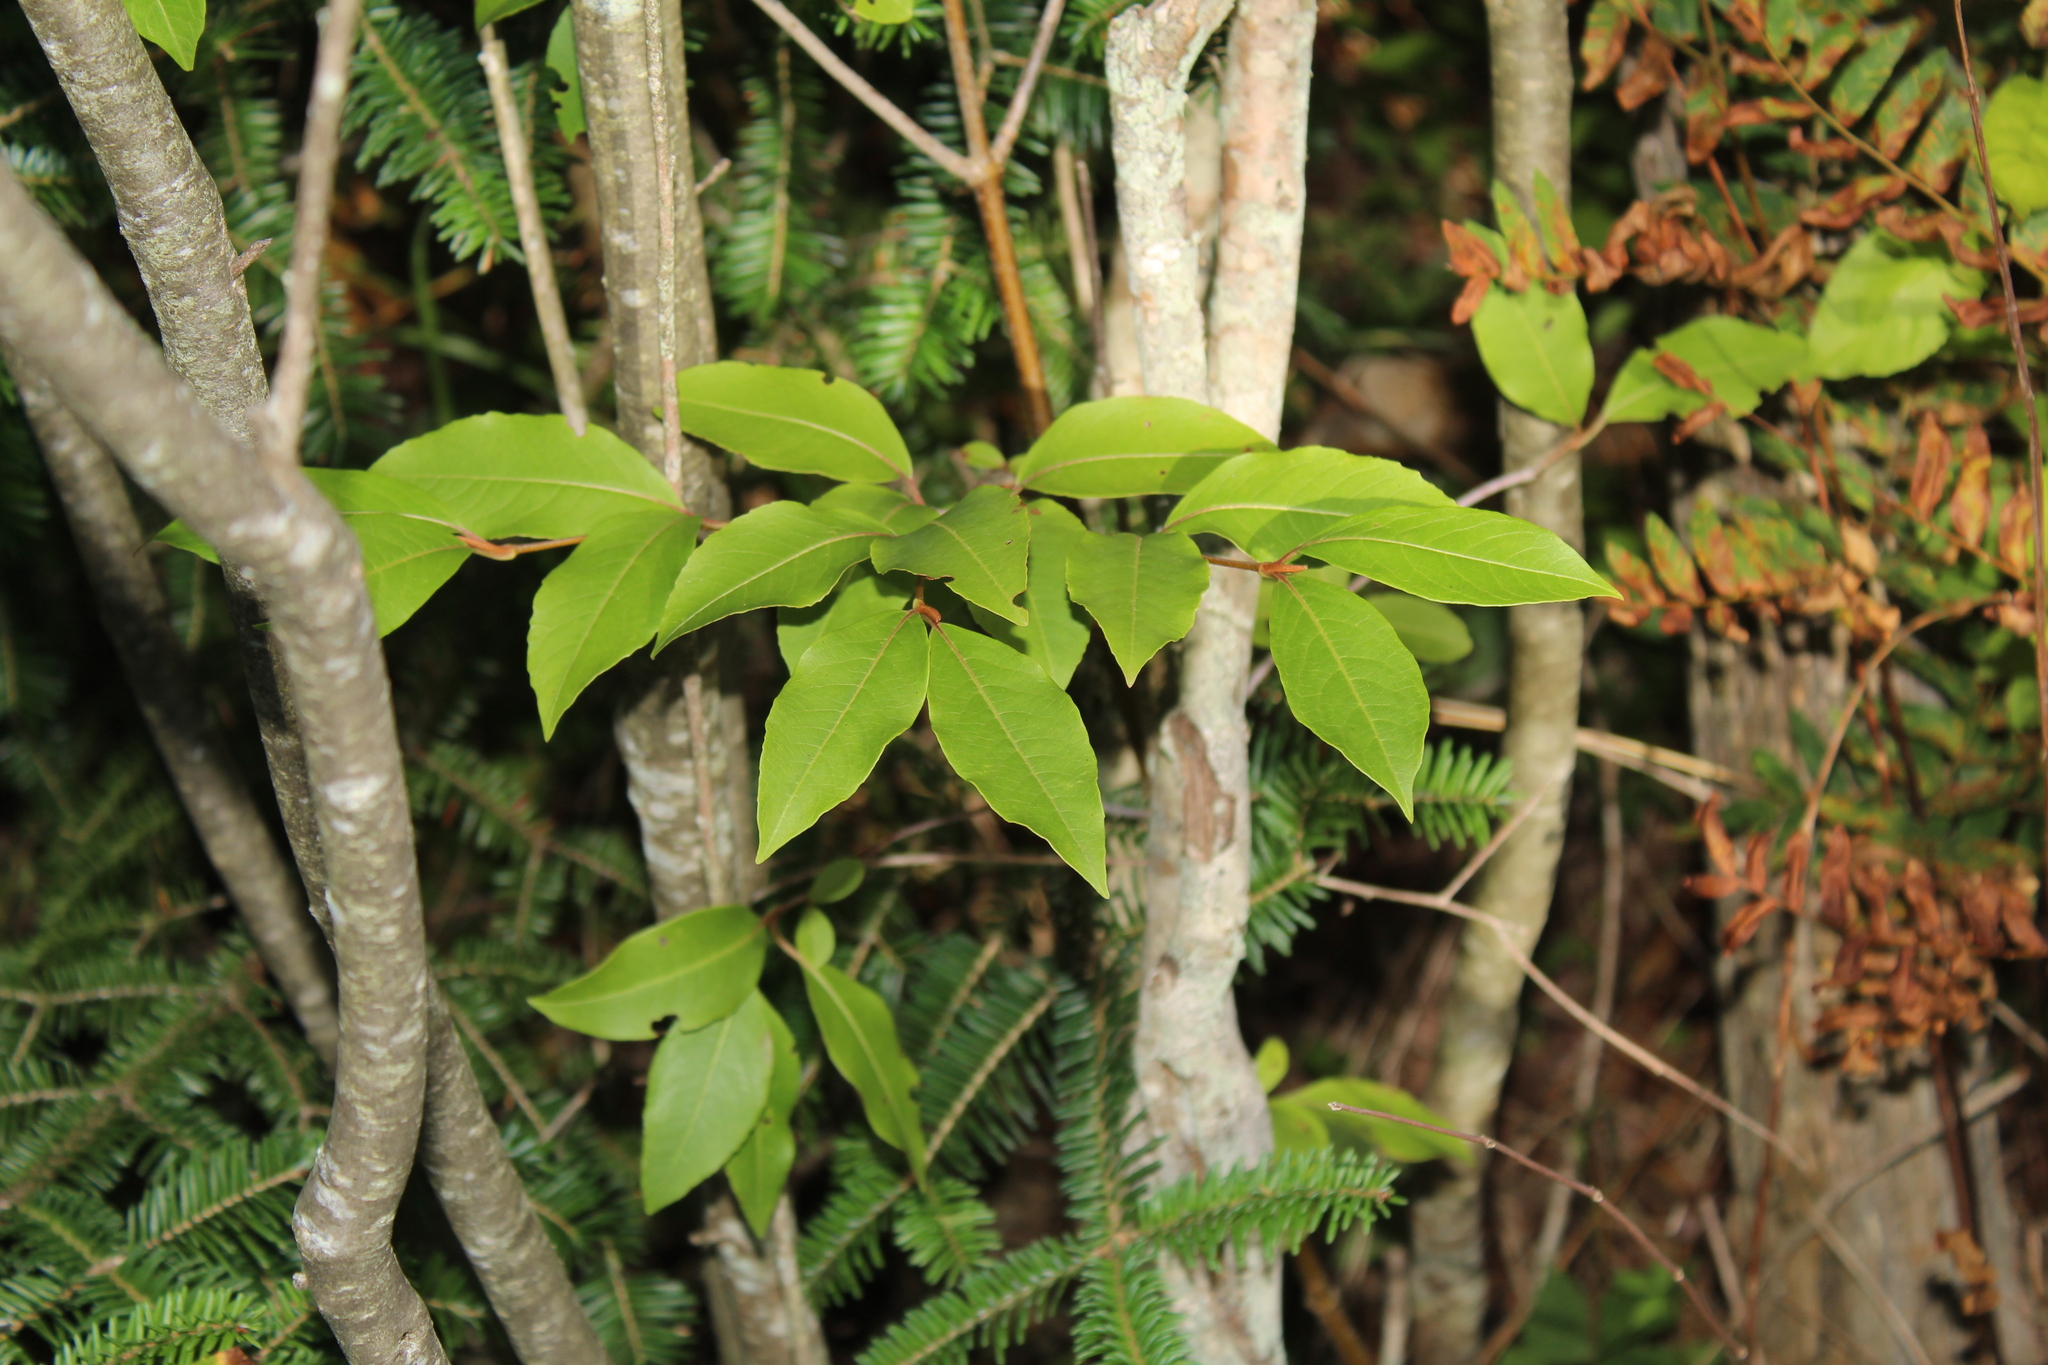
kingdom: Plantae
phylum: Tracheophyta
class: Magnoliopsida
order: Dipsacales
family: Viburnaceae
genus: Viburnum
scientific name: Viburnum cassinoides
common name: Swamp haw
